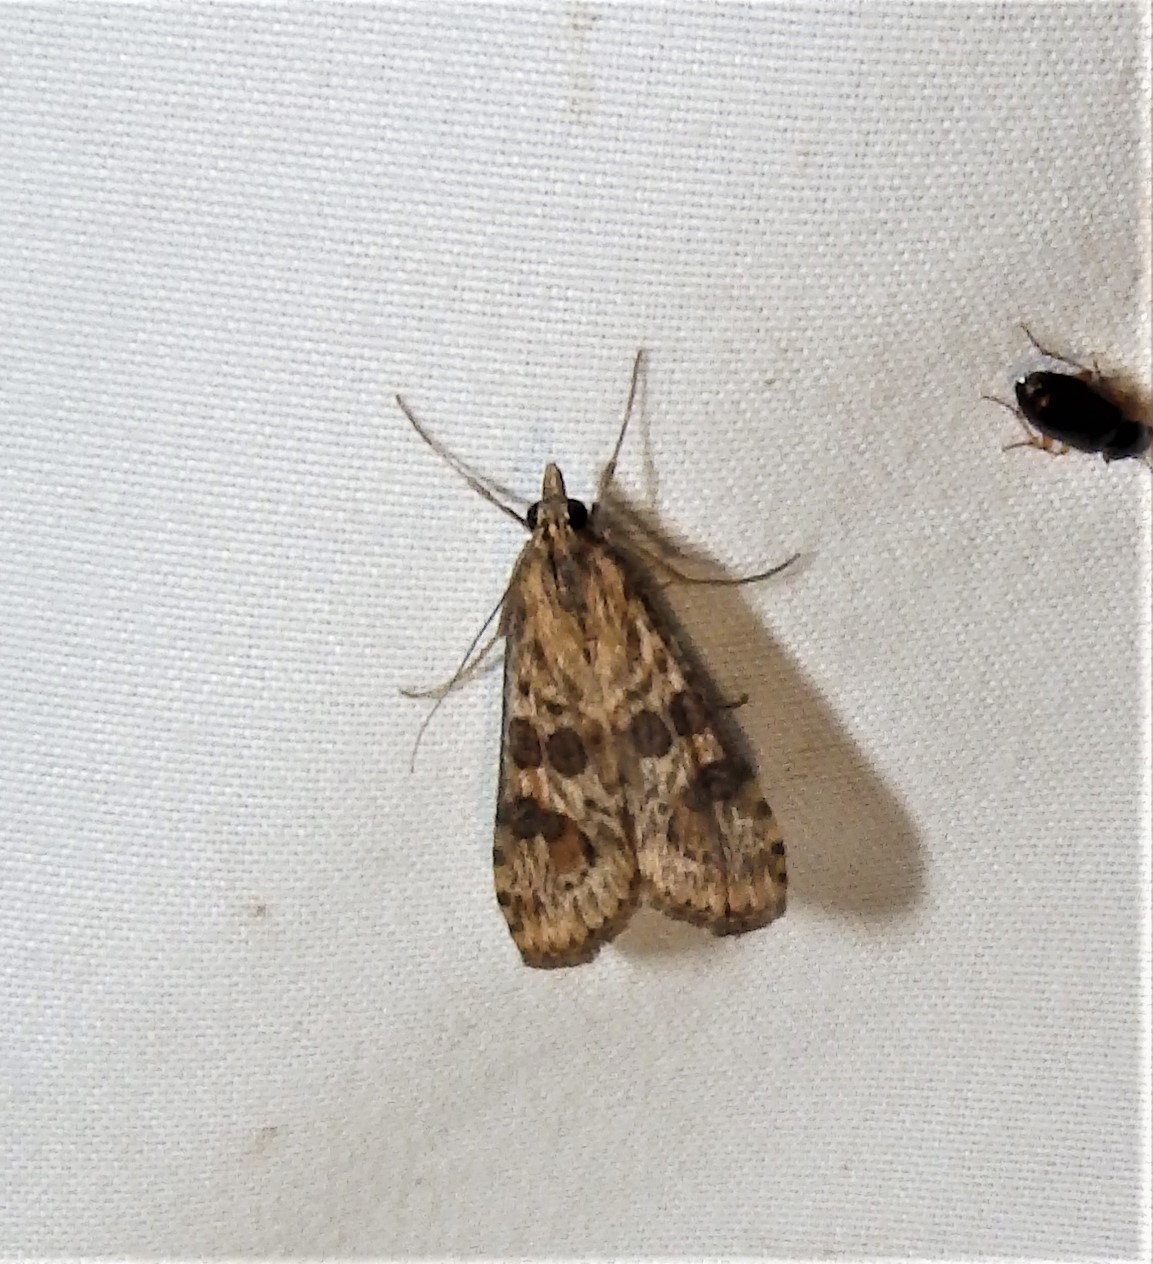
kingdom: Animalia
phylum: Arthropoda
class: Insecta
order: Lepidoptera
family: Crambidae
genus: Nomophila
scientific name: Nomophila nearctica
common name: American rush veneer
